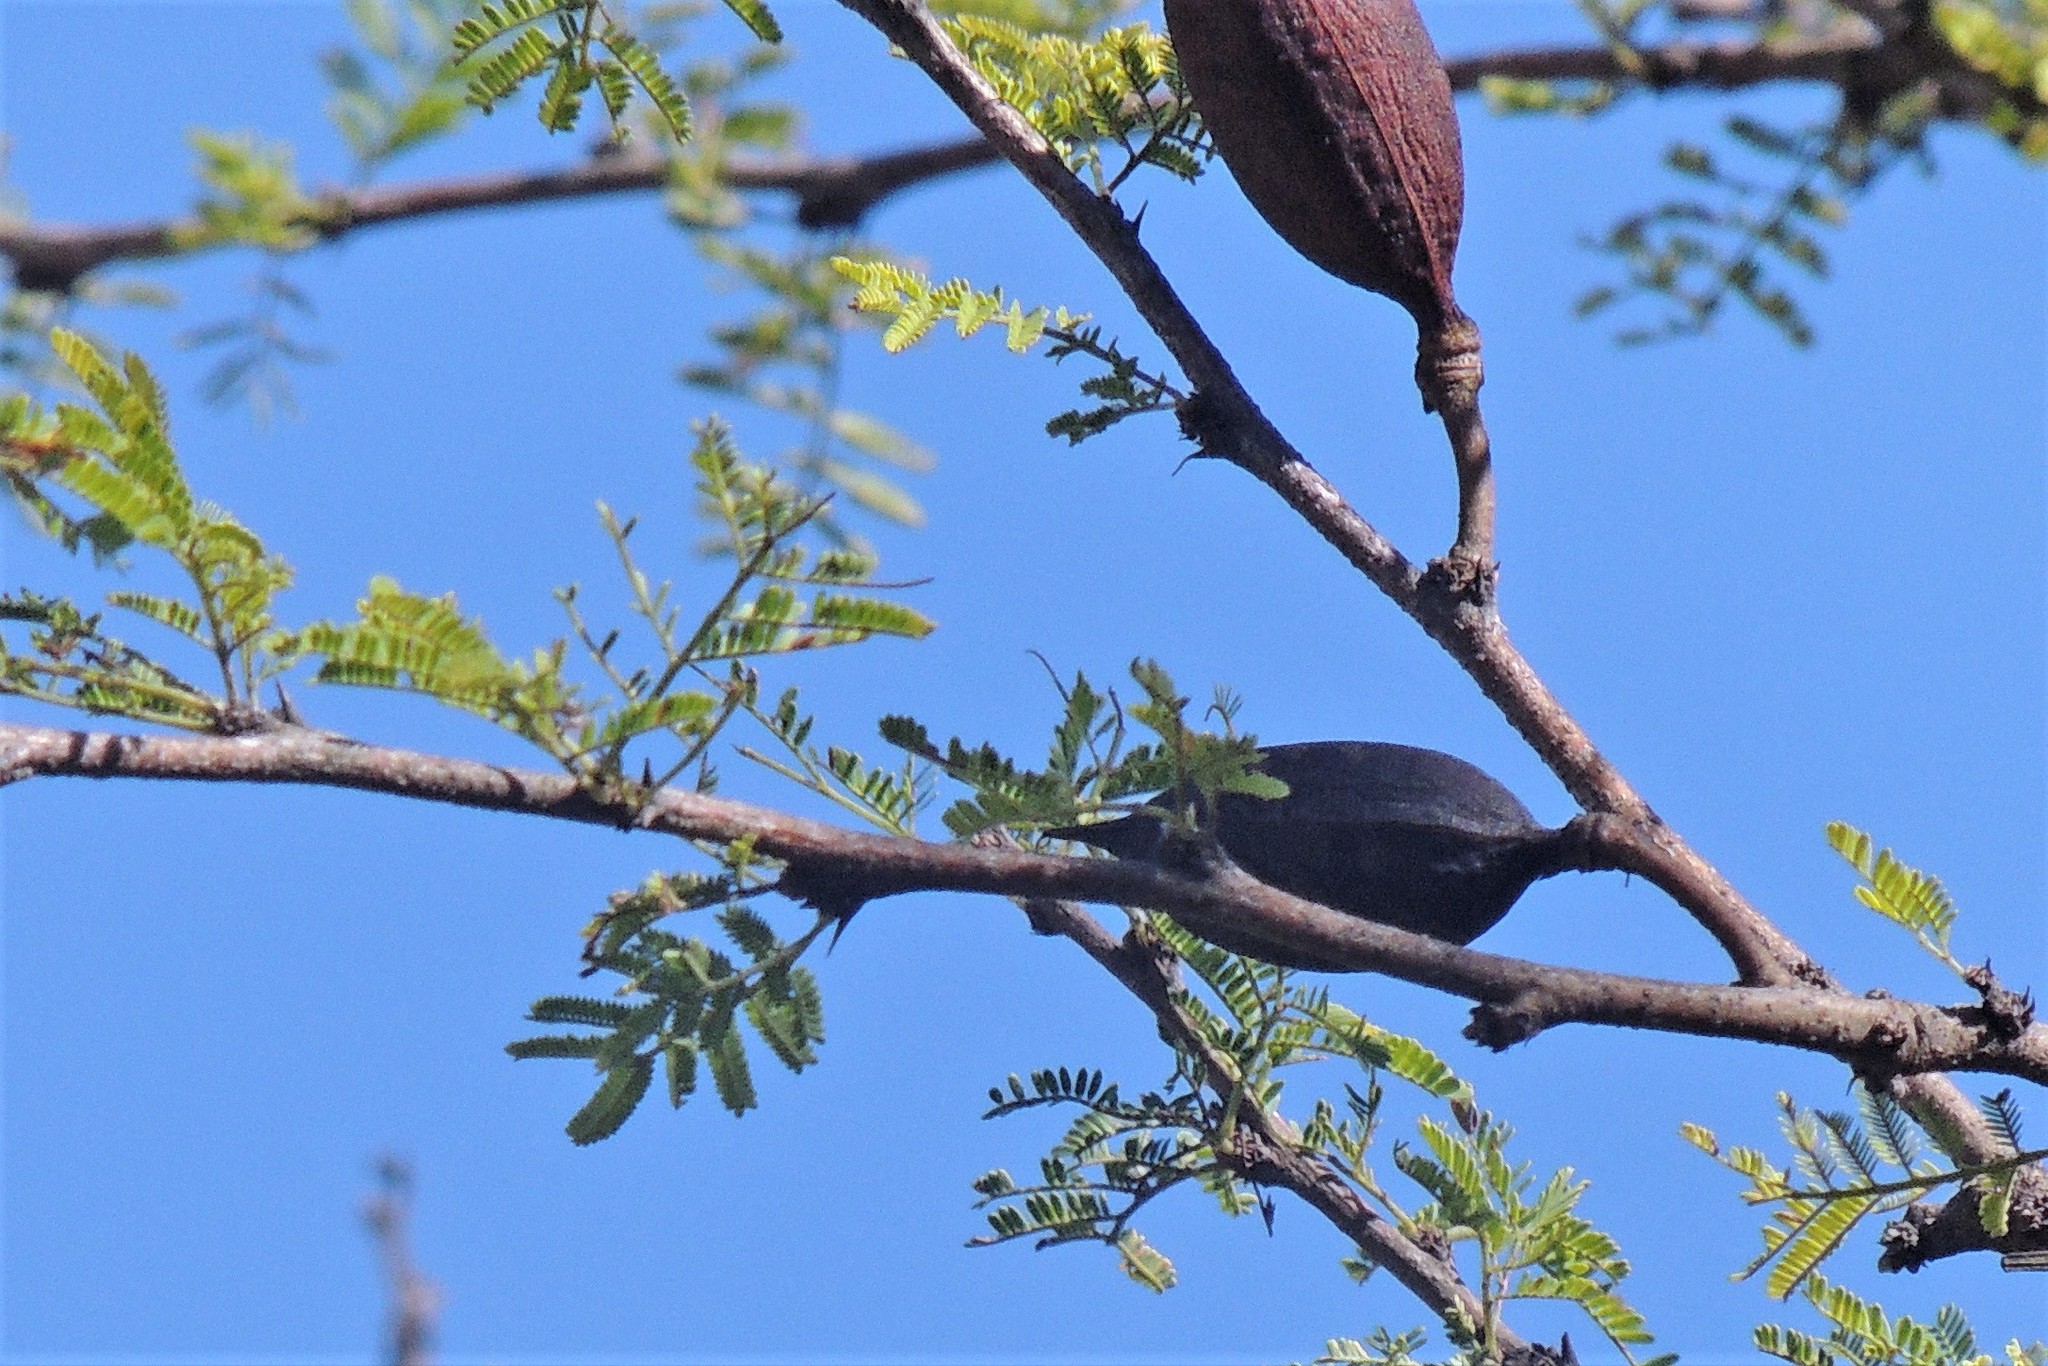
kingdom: Plantae
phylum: Tracheophyta
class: Magnoliopsida
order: Fabales
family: Fabaceae
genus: Vachellia
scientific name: Vachellia caven
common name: Roman cassie
